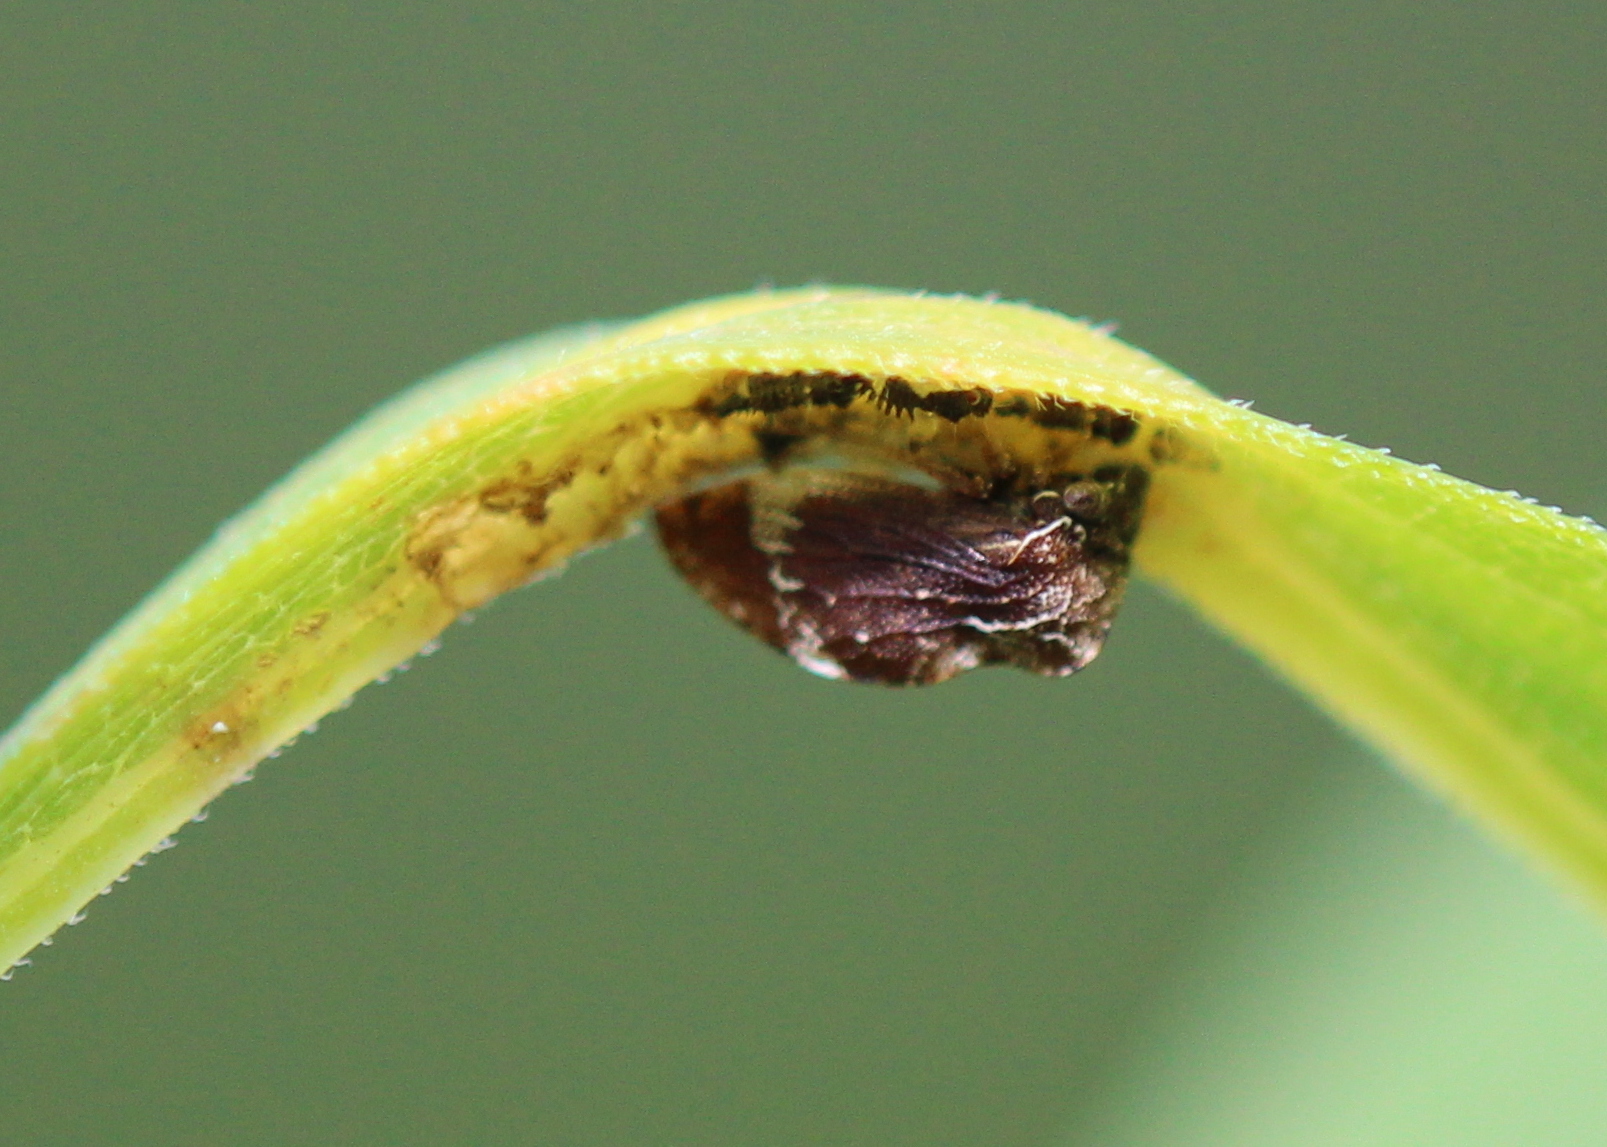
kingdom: Animalia
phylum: Arthropoda
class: Insecta
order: Hemiptera
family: Membracidae
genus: Publilia
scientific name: Publilia concava
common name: Aster treehopper
